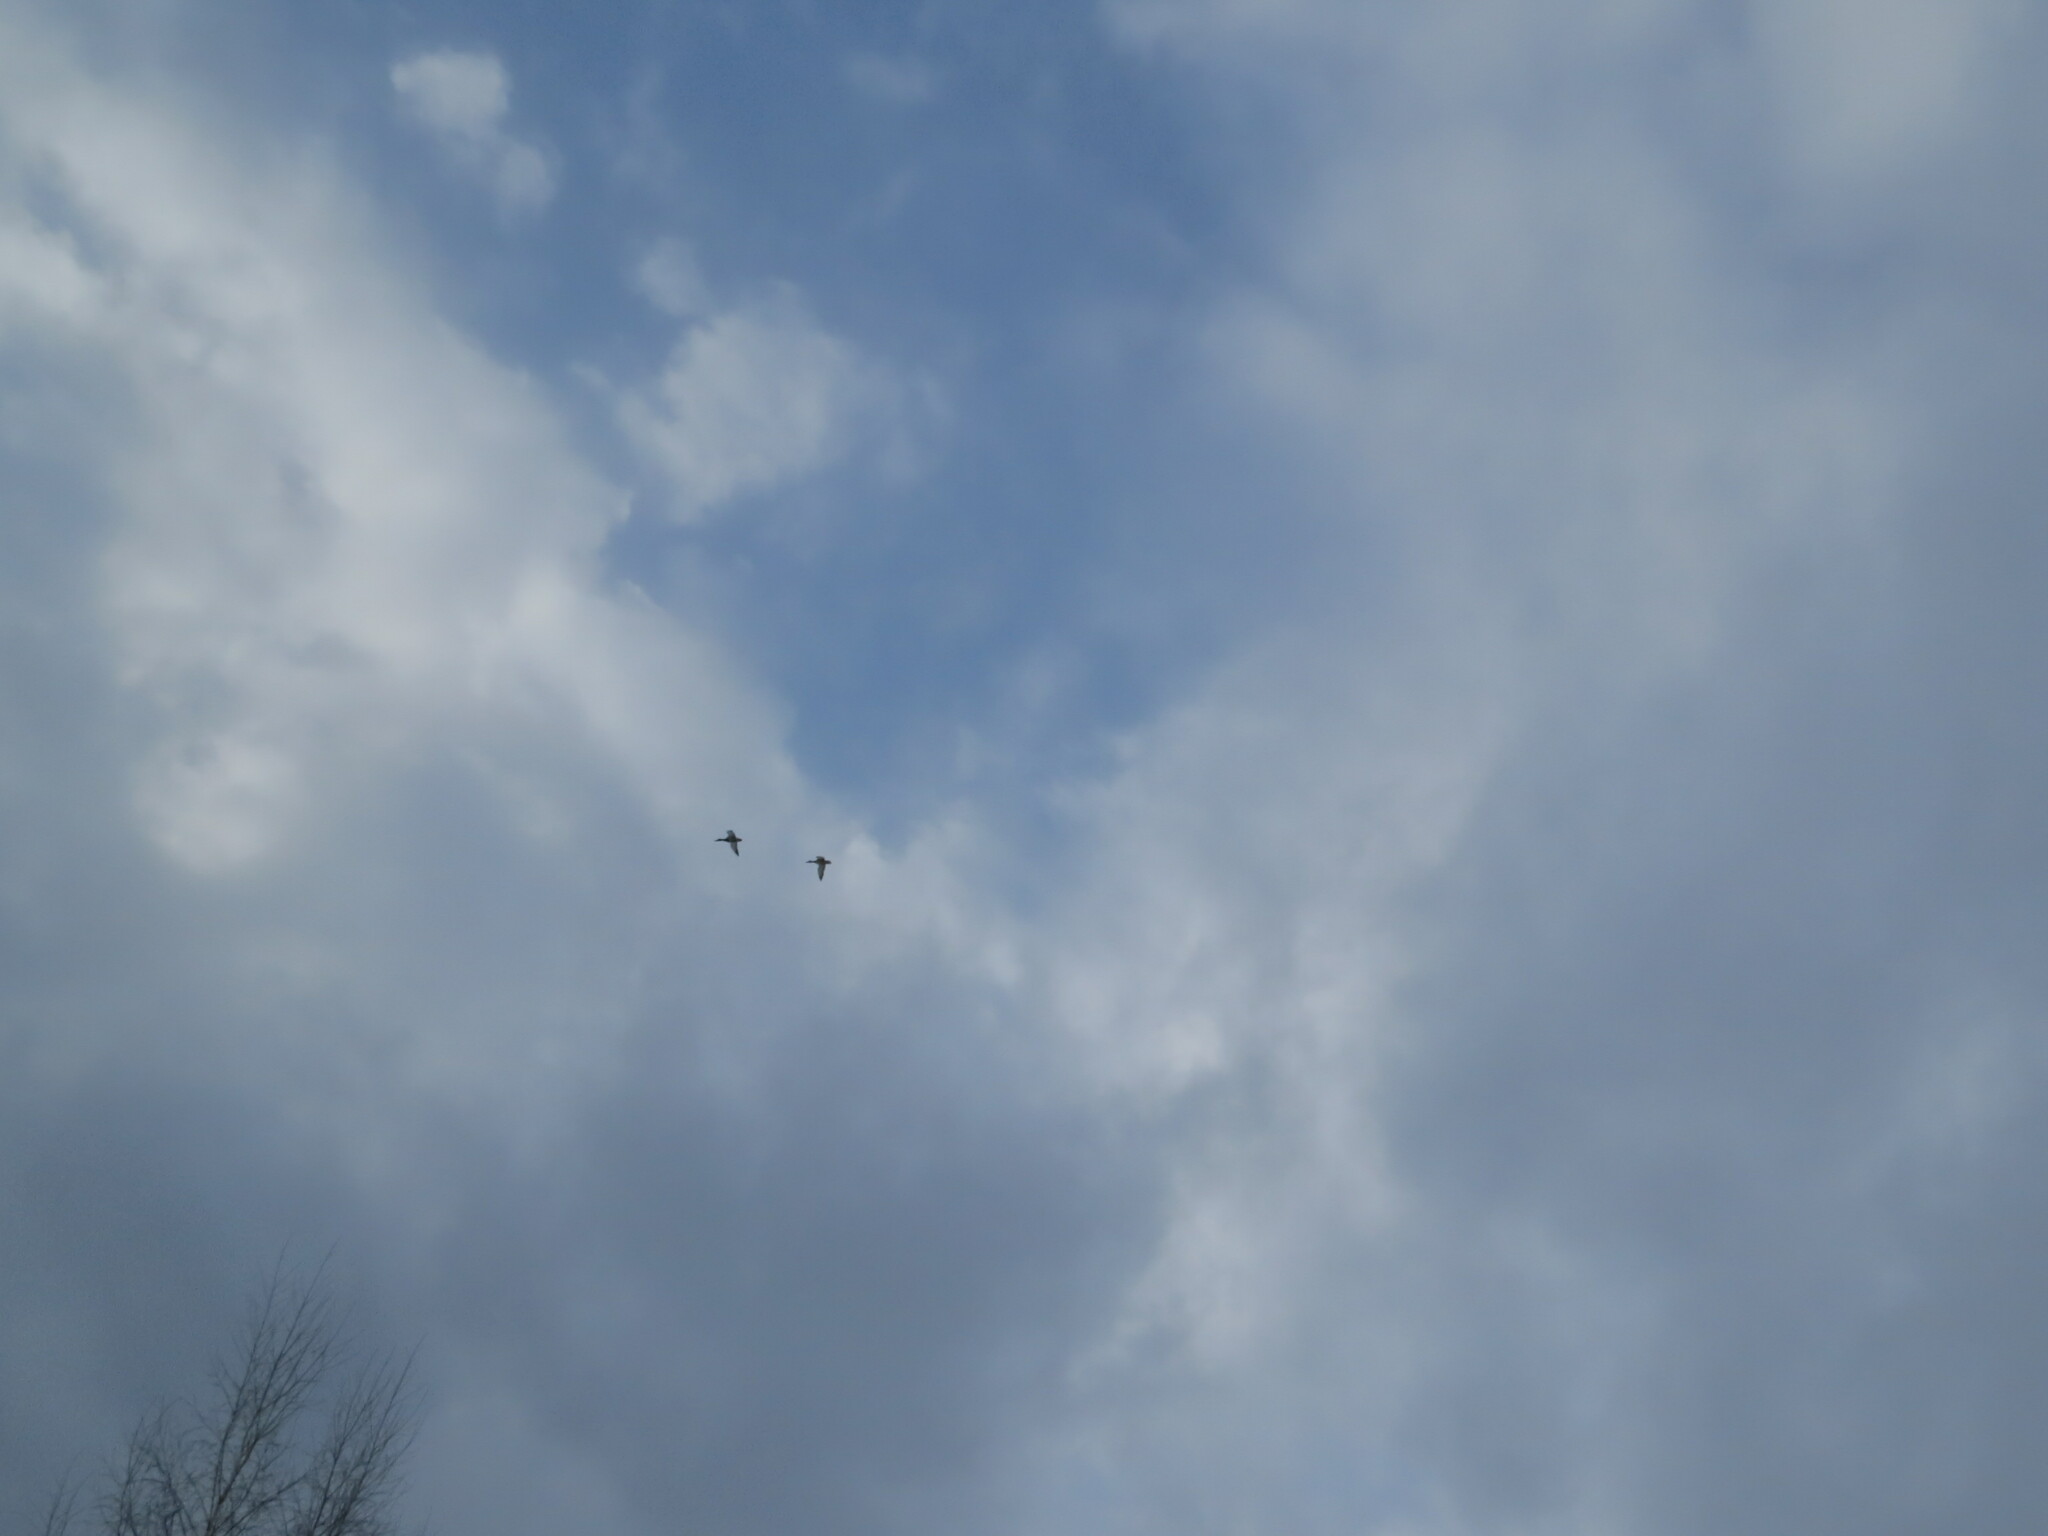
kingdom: Animalia
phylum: Chordata
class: Aves
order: Anseriformes
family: Anatidae
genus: Anas
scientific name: Anas platyrhynchos
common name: Mallard
